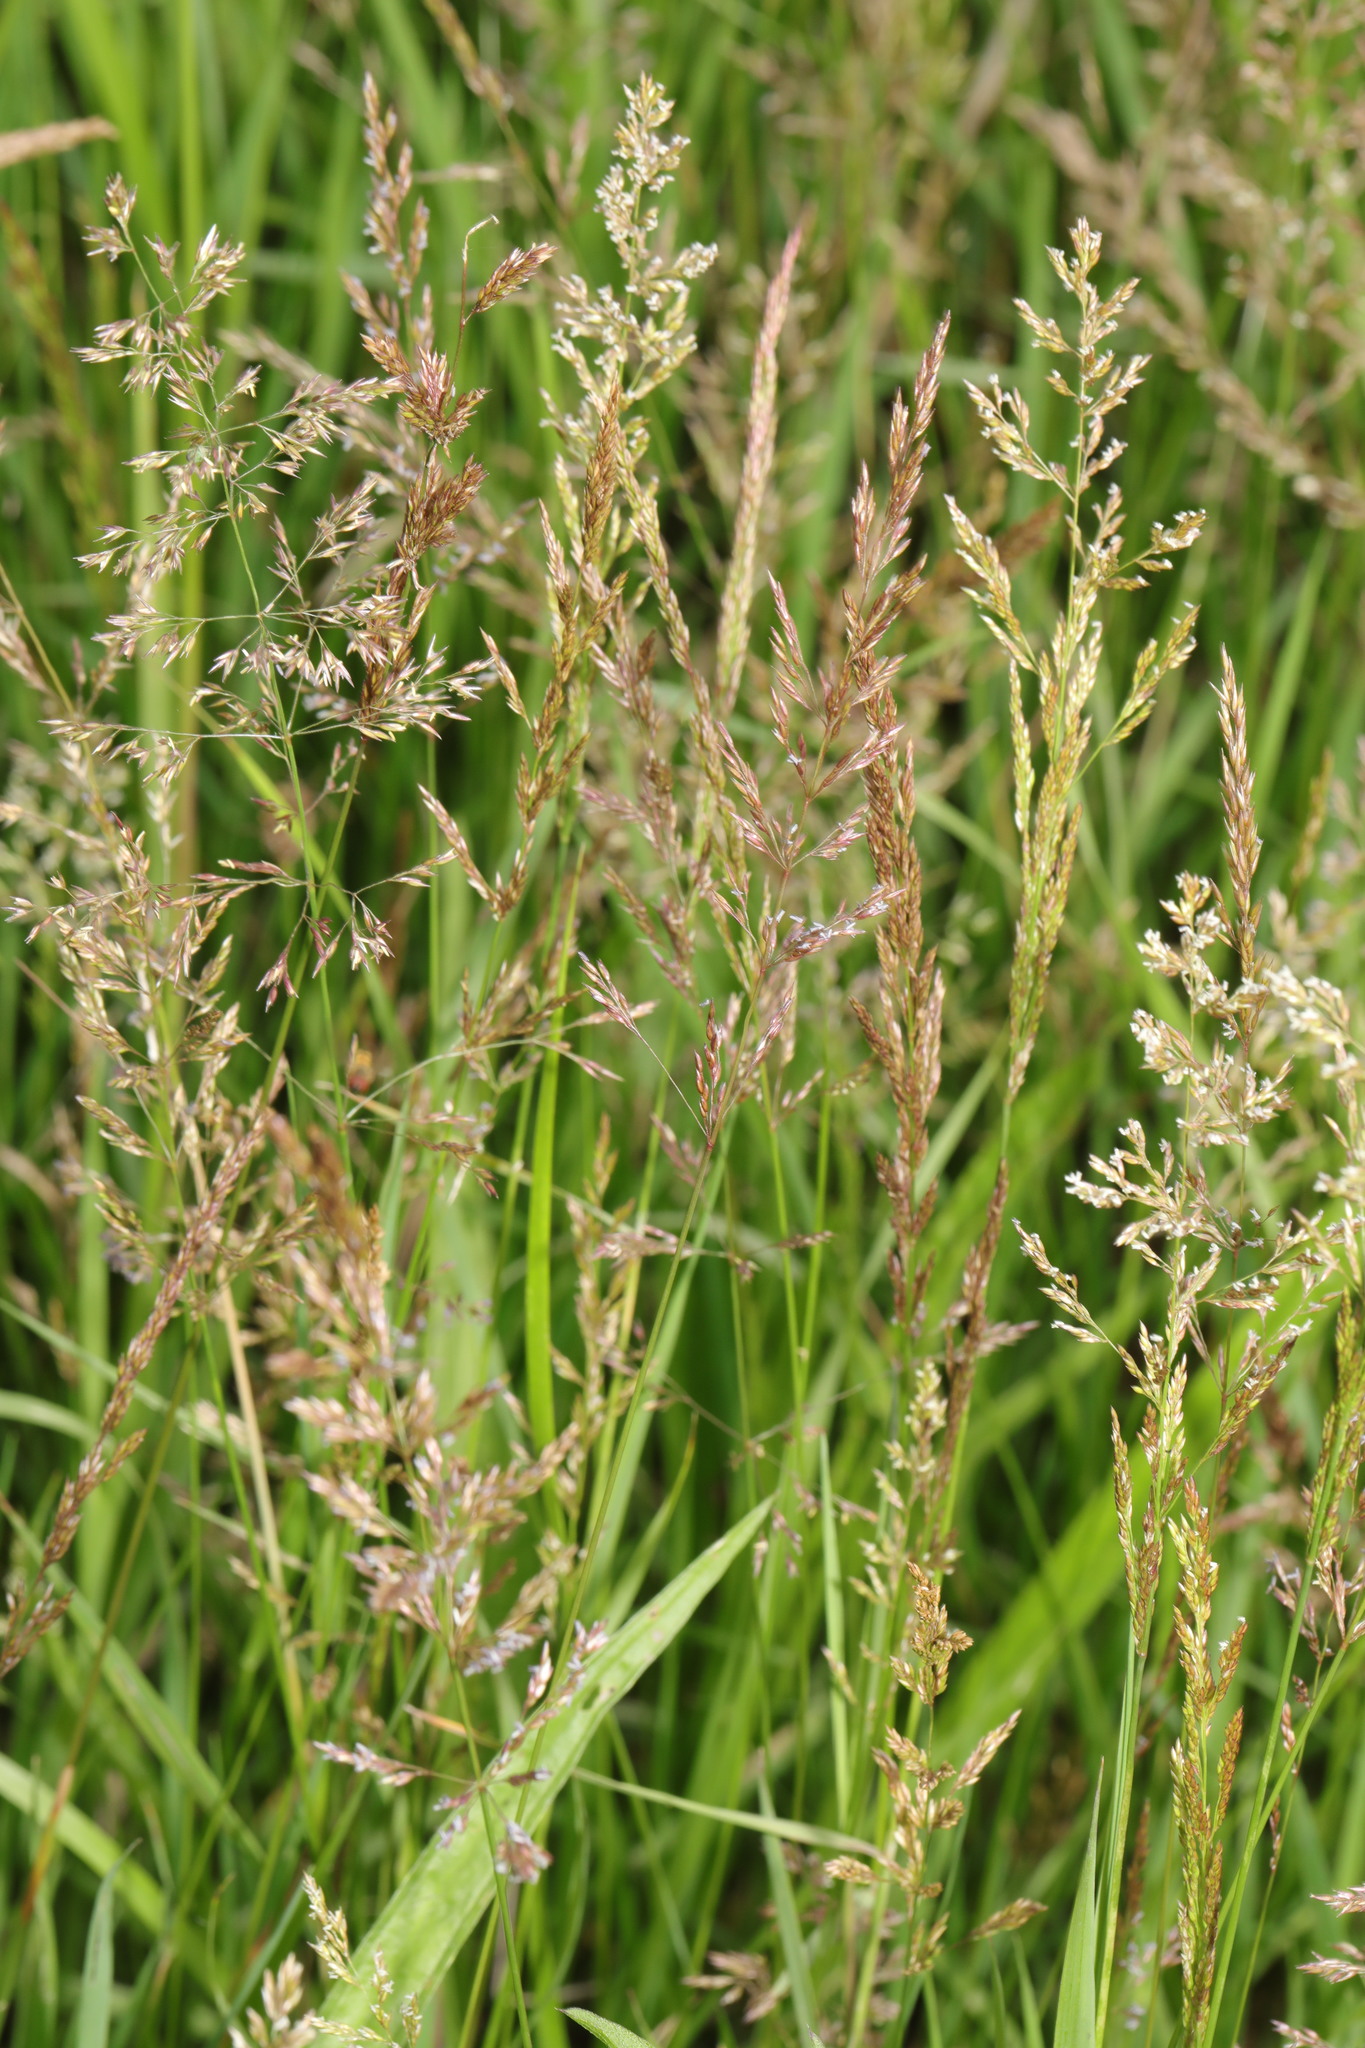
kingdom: Plantae
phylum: Tracheophyta
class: Liliopsida
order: Poales
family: Poaceae
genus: Agrostis
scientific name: Agrostis stolonifera
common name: Creeping bentgrass
